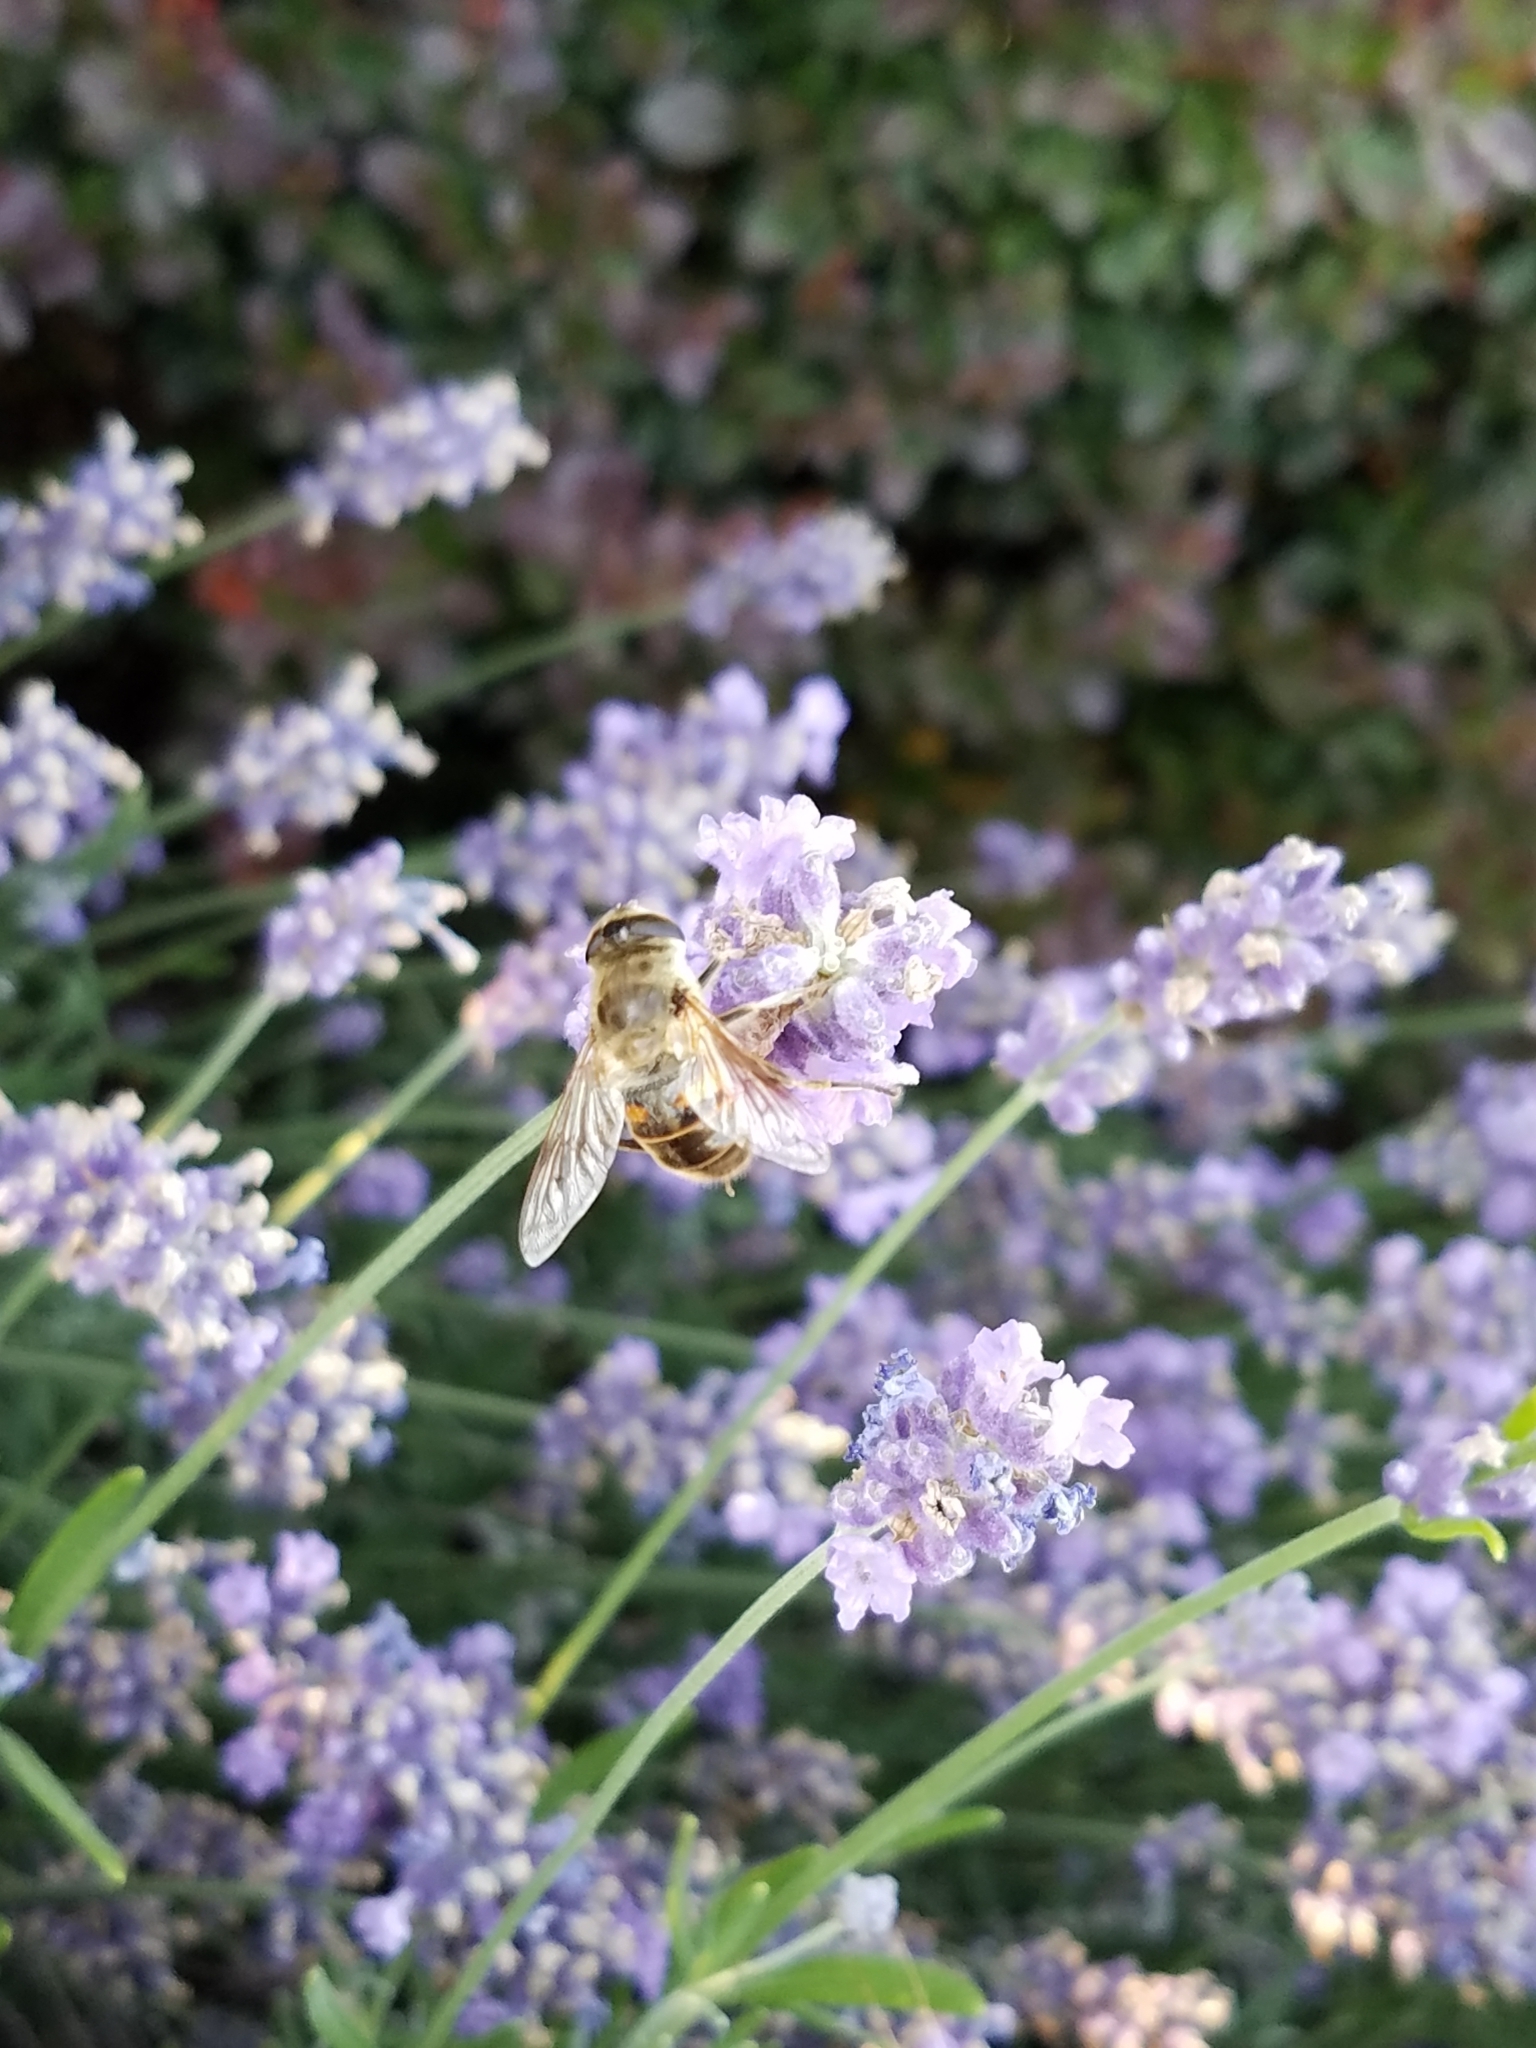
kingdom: Animalia
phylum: Arthropoda
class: Insecta
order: Diptera
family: Syrphidae
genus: Eristalis
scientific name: Eristalis tenax
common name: Drone fly
